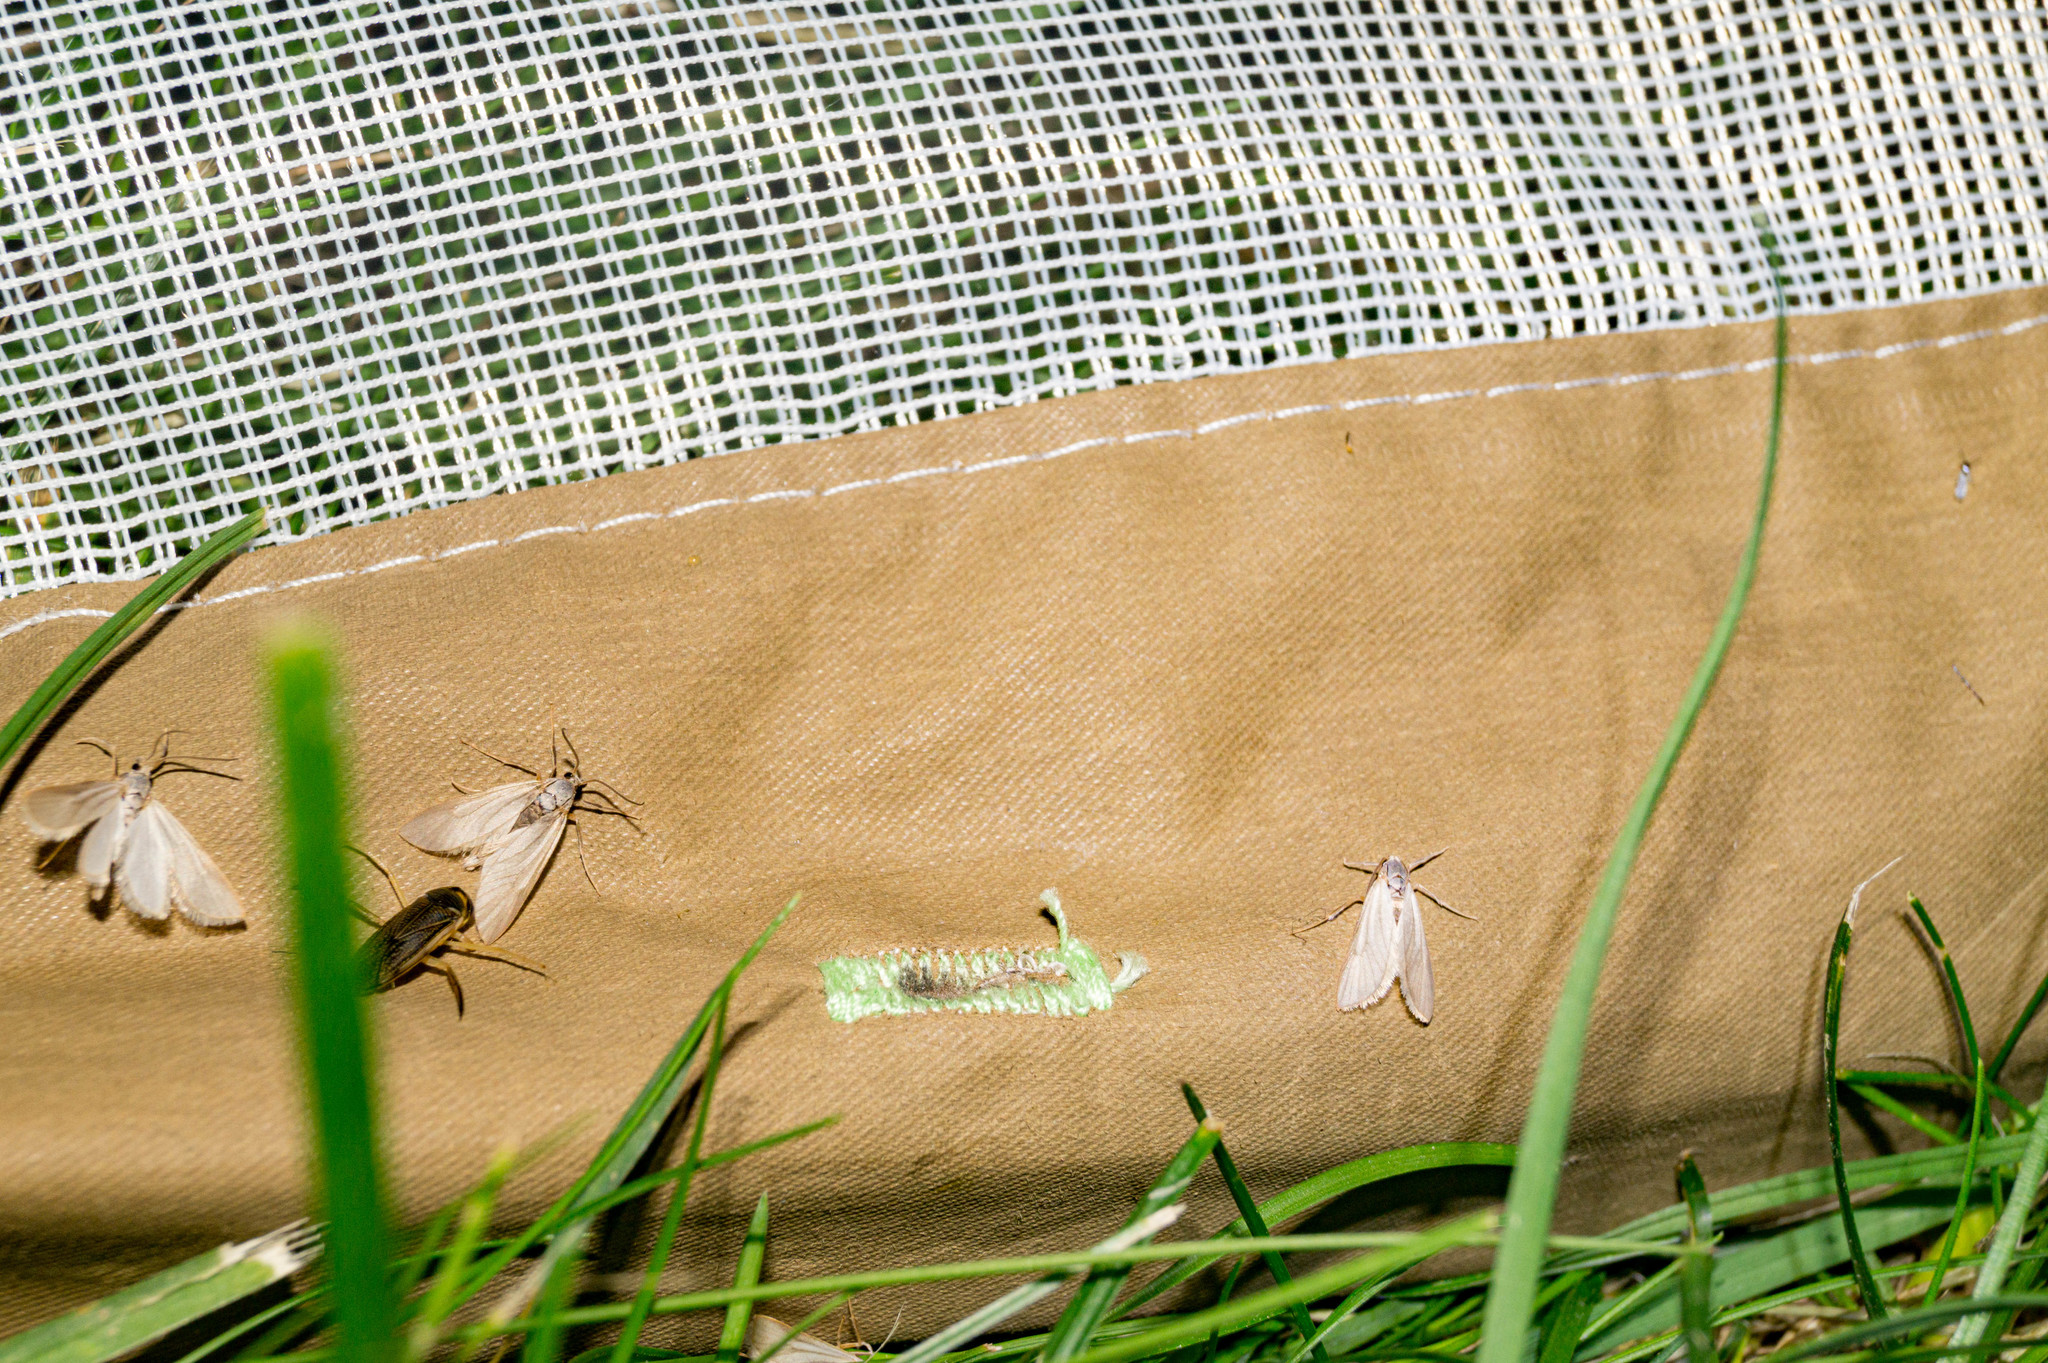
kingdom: Animalia
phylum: Arthropoda
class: Insecta
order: Lepidoptera
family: Crambidae
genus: Acentria
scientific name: Acentria ephemerella
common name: European water moth
